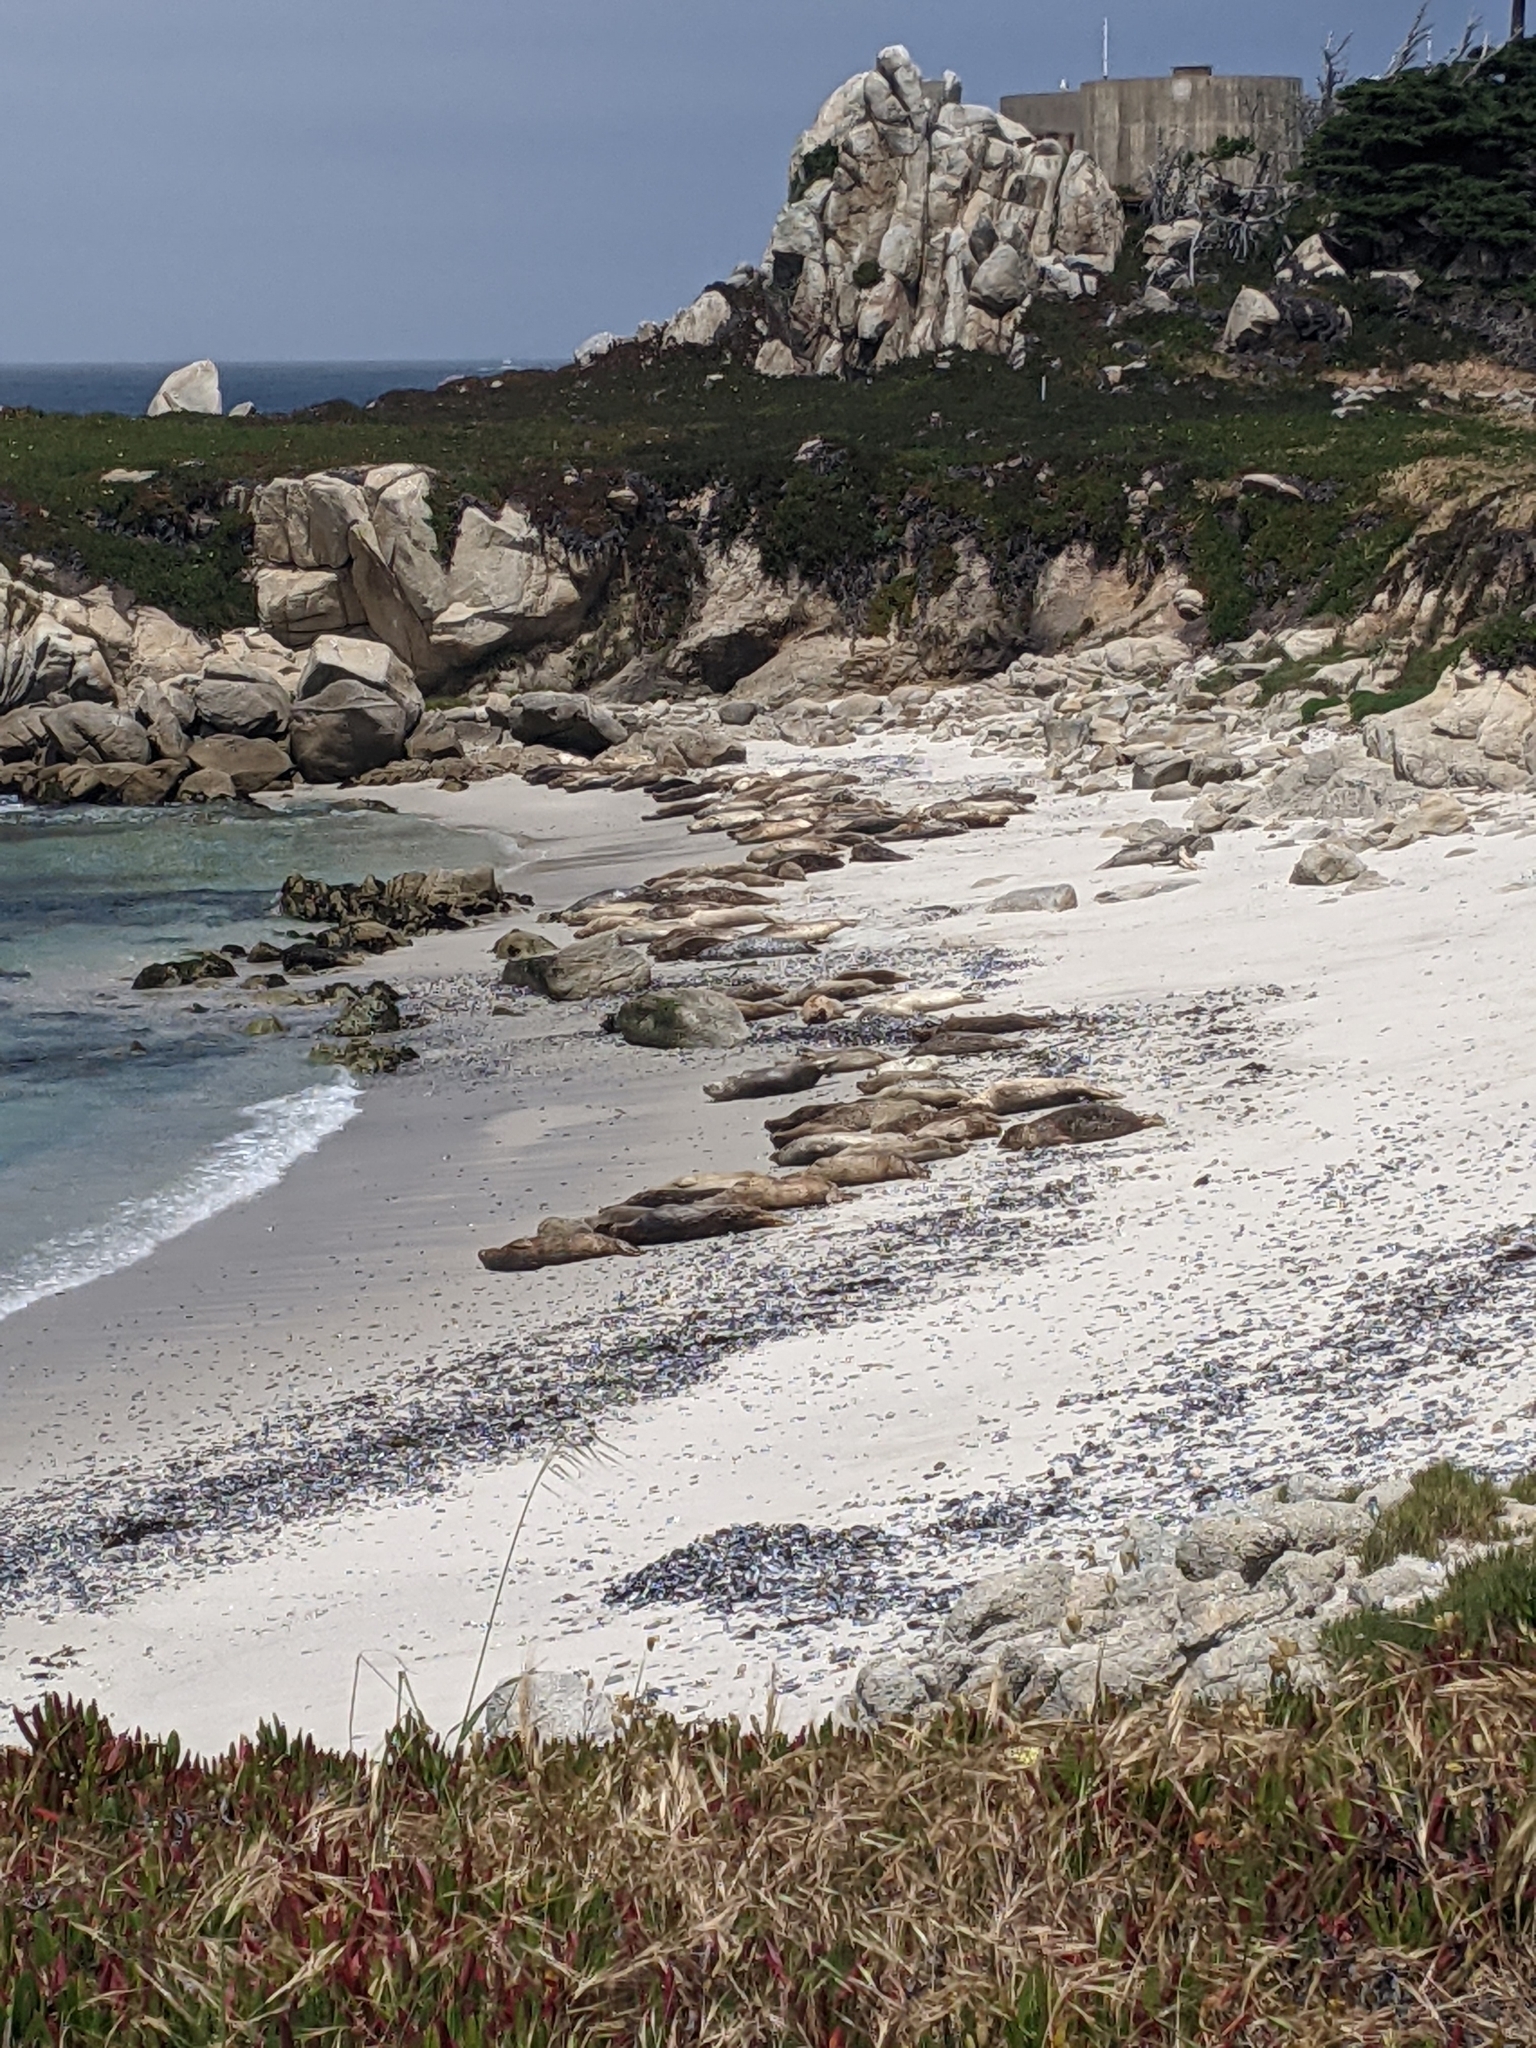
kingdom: Animalia
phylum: Chordata
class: Mammalia
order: Carnivora
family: Phocidae
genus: Phoca
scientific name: Phoca vitulina
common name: Harbor seal
